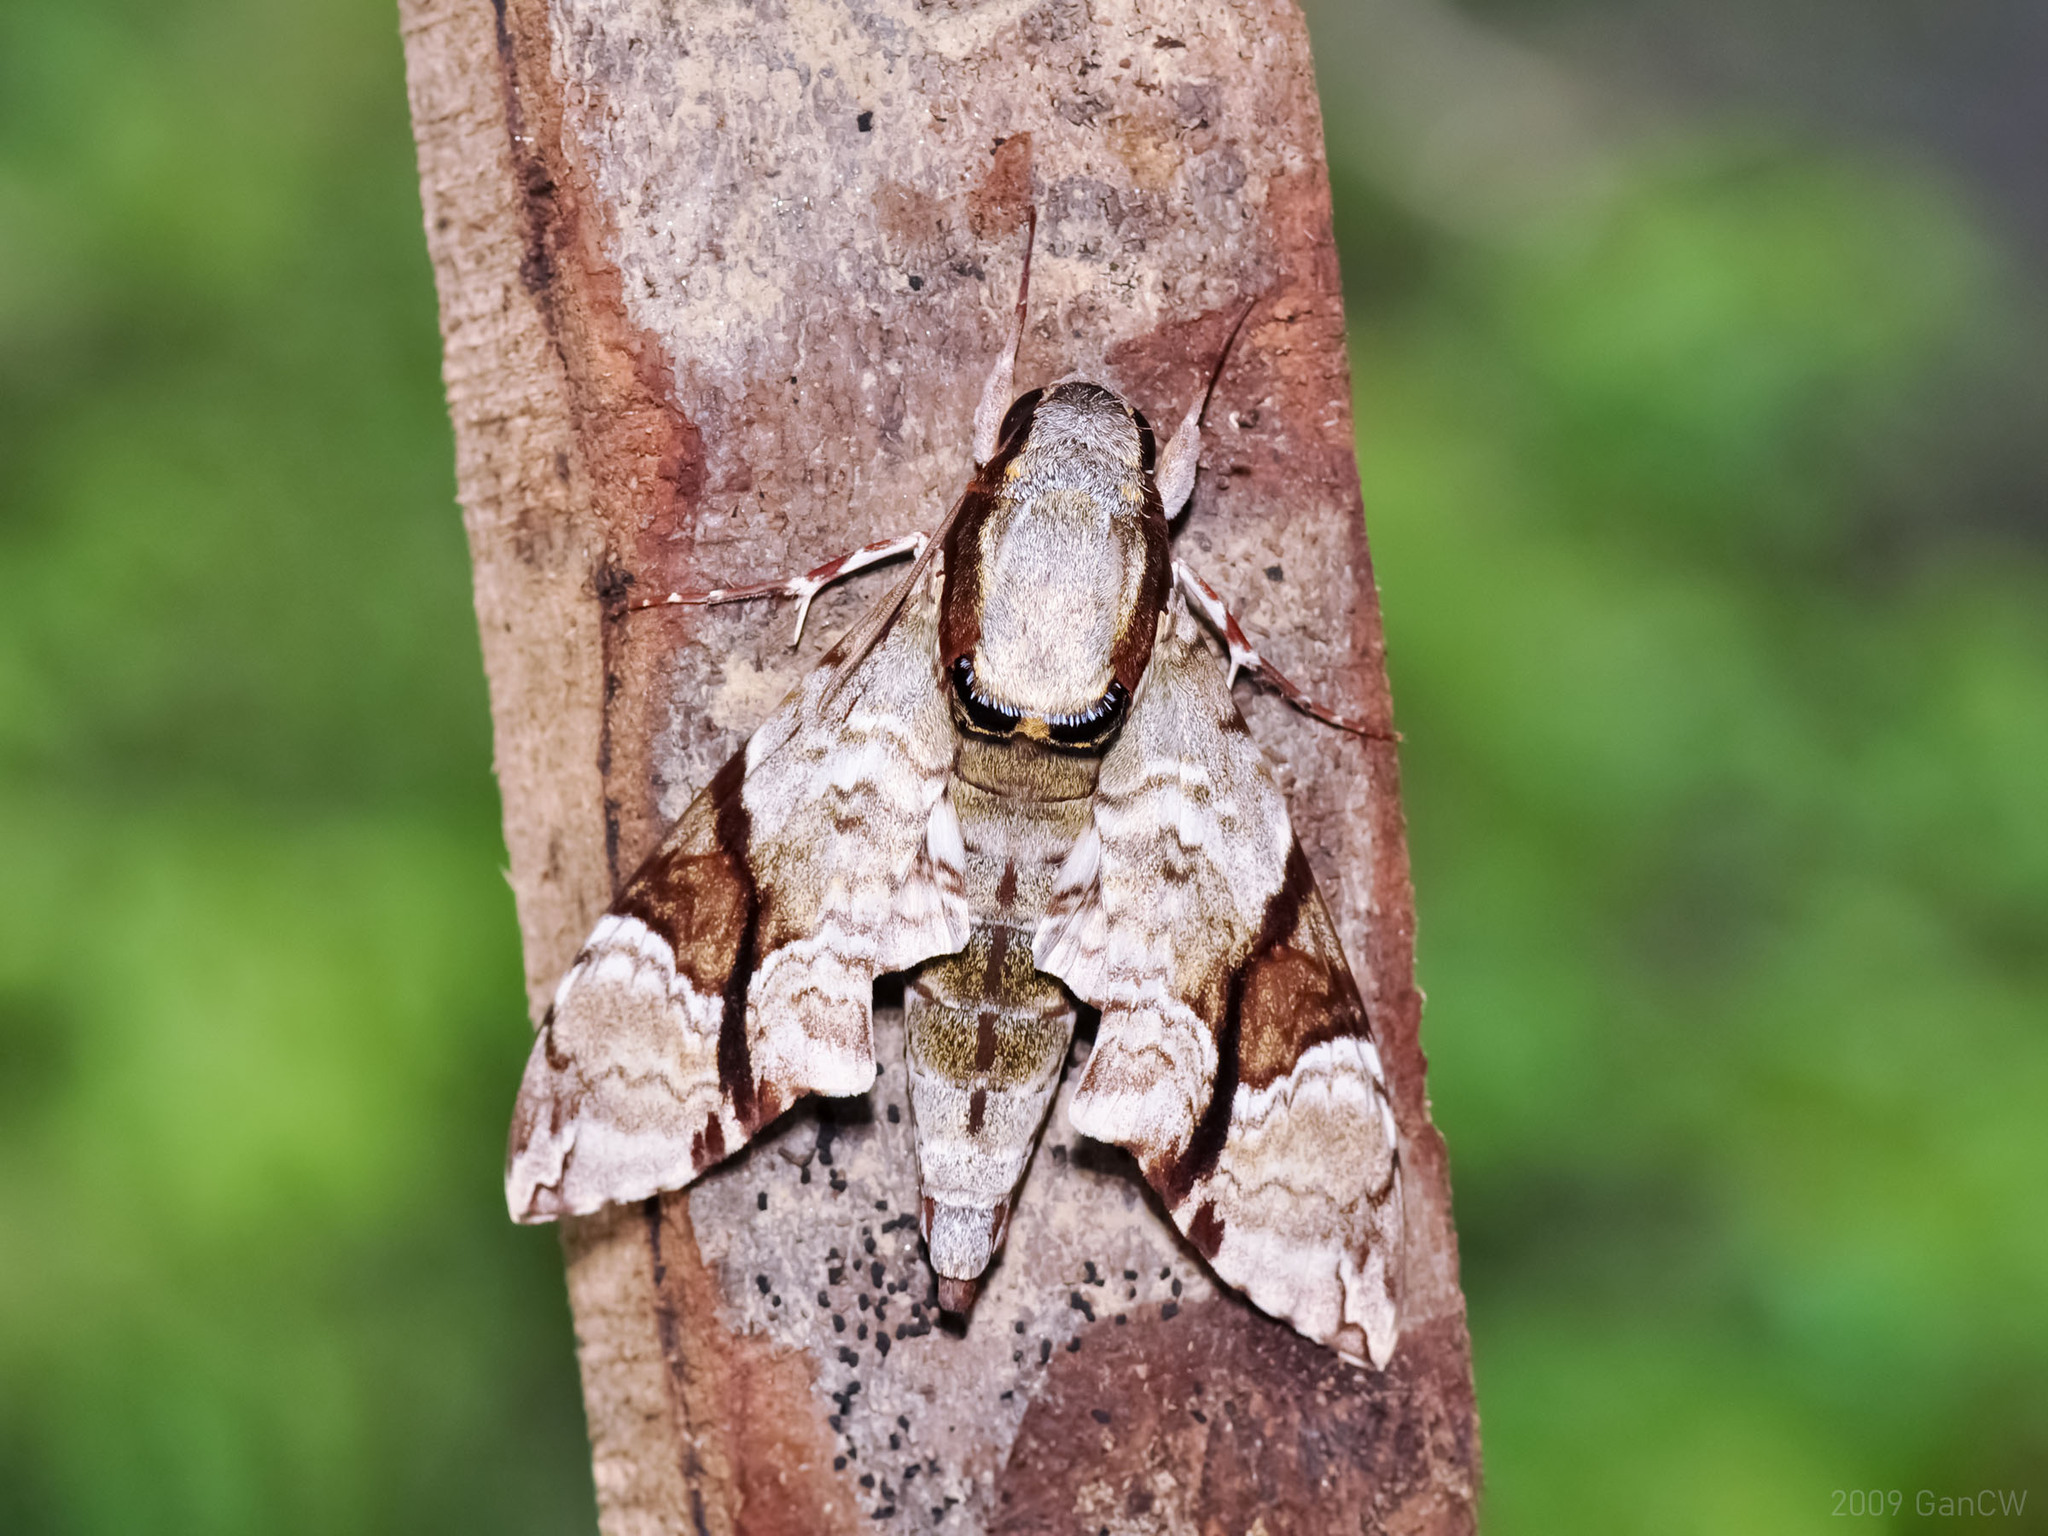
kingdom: Animalia
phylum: Arthropoda
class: Insecta
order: Lepidoptera
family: Sphingidae
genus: Megacorma
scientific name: Megacorma obliqua
